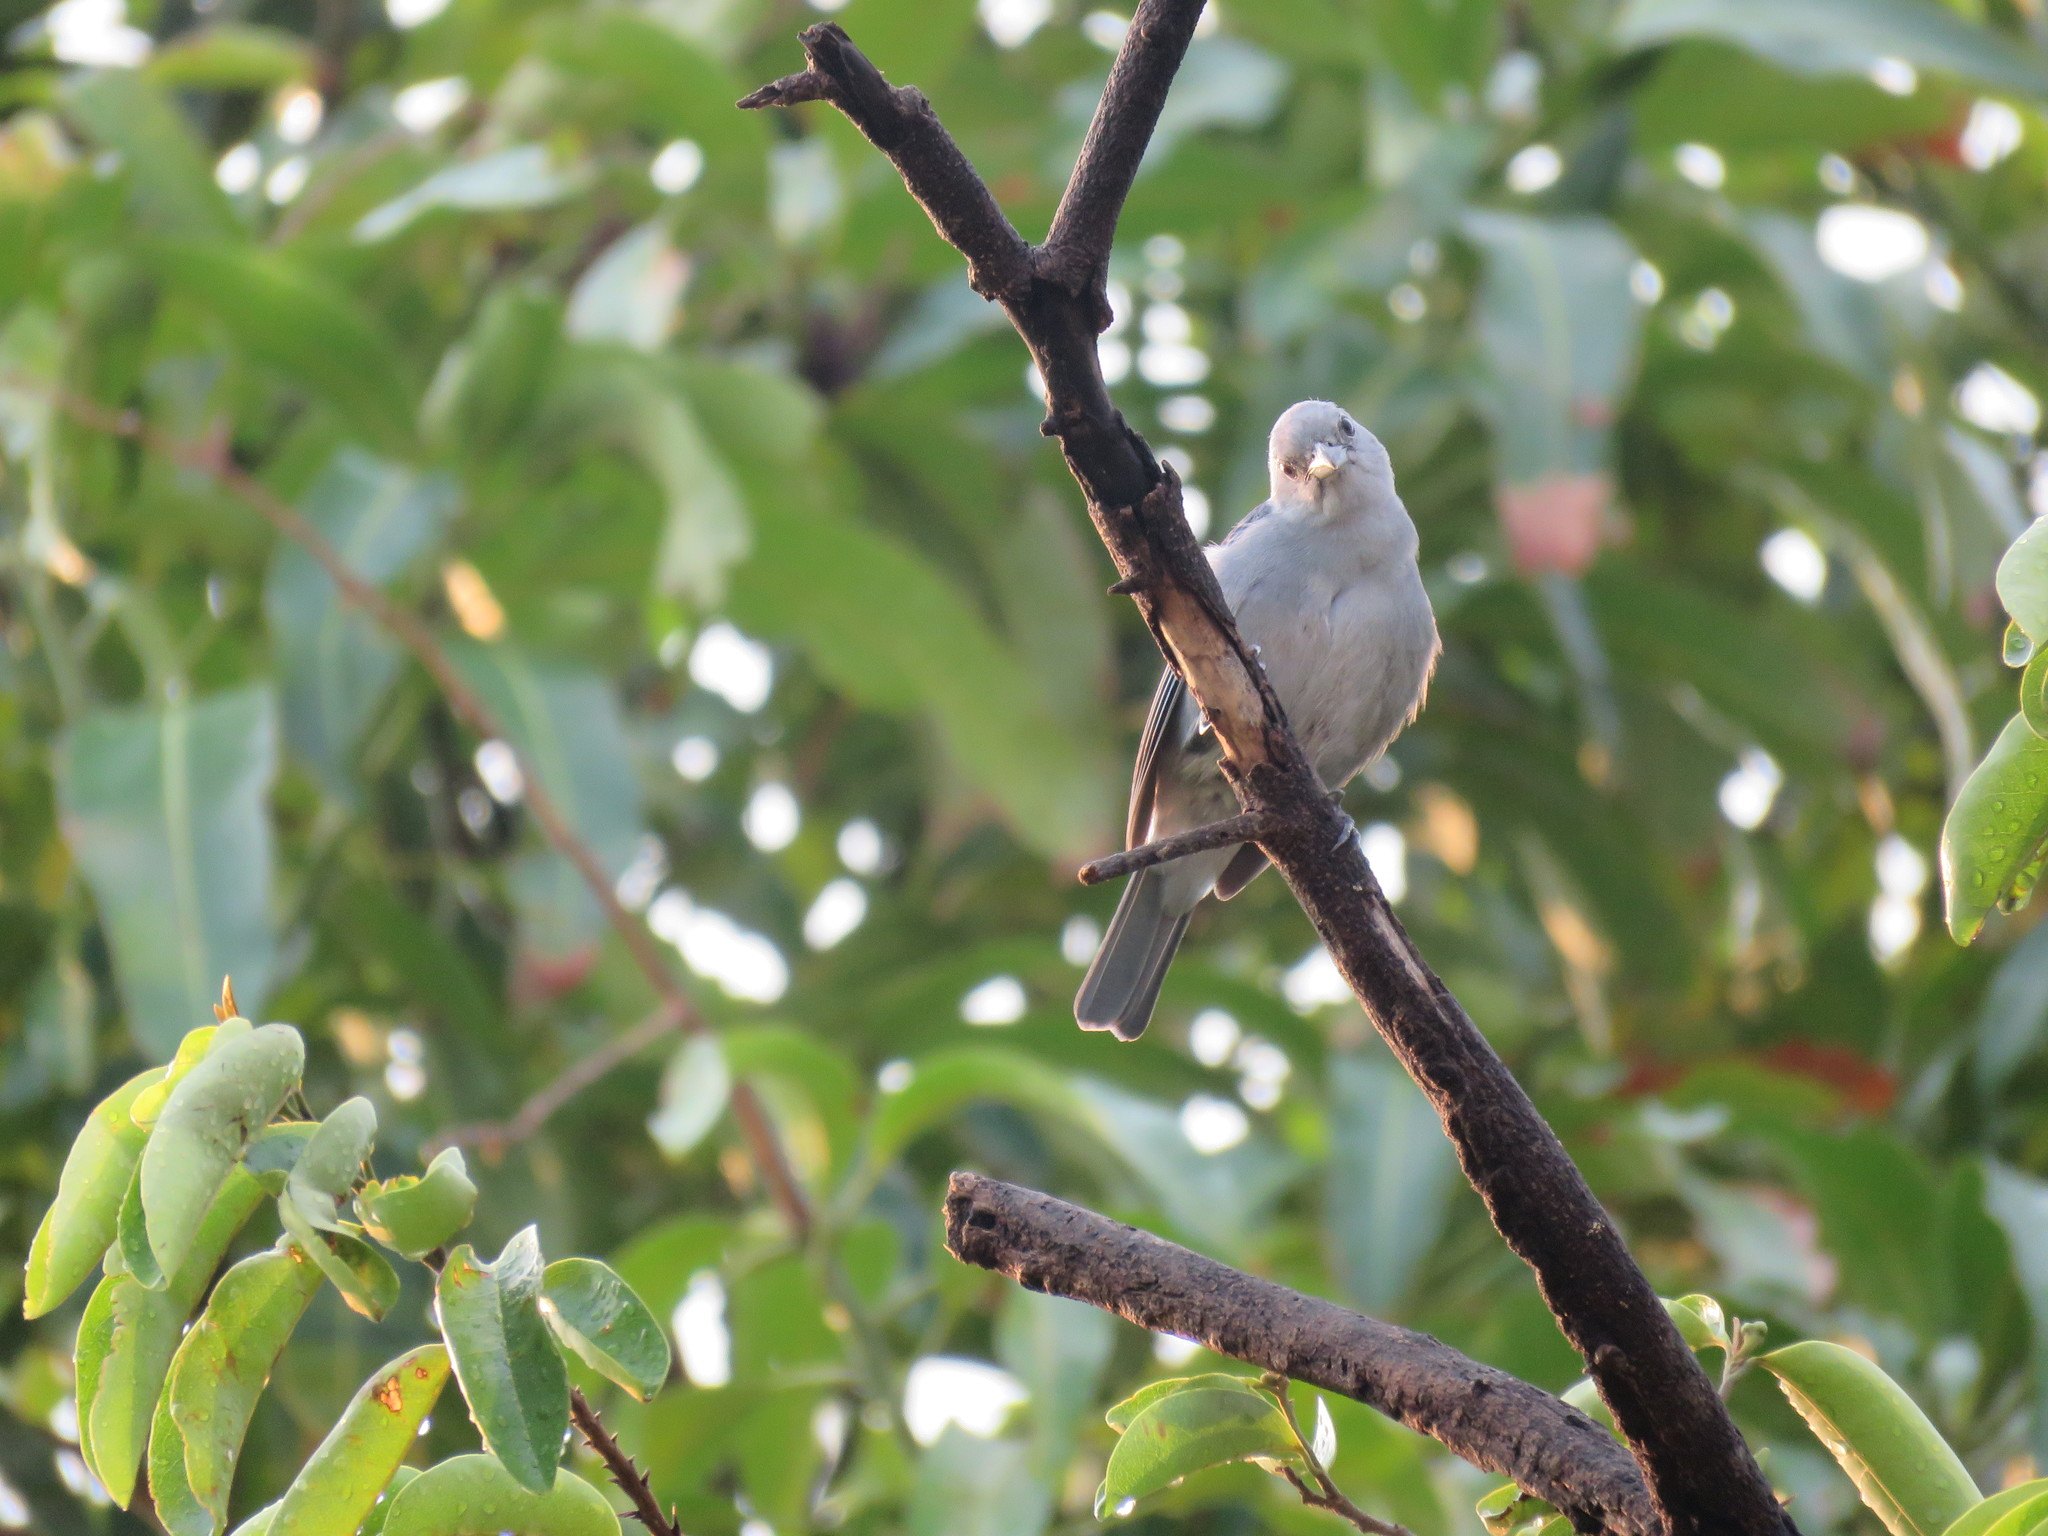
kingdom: Animalia
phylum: Chordata
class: Aves
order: Passeriformes
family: Thraupidae
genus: Thraupis
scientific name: Thraupis episcopus
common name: Blue-grey tanager
